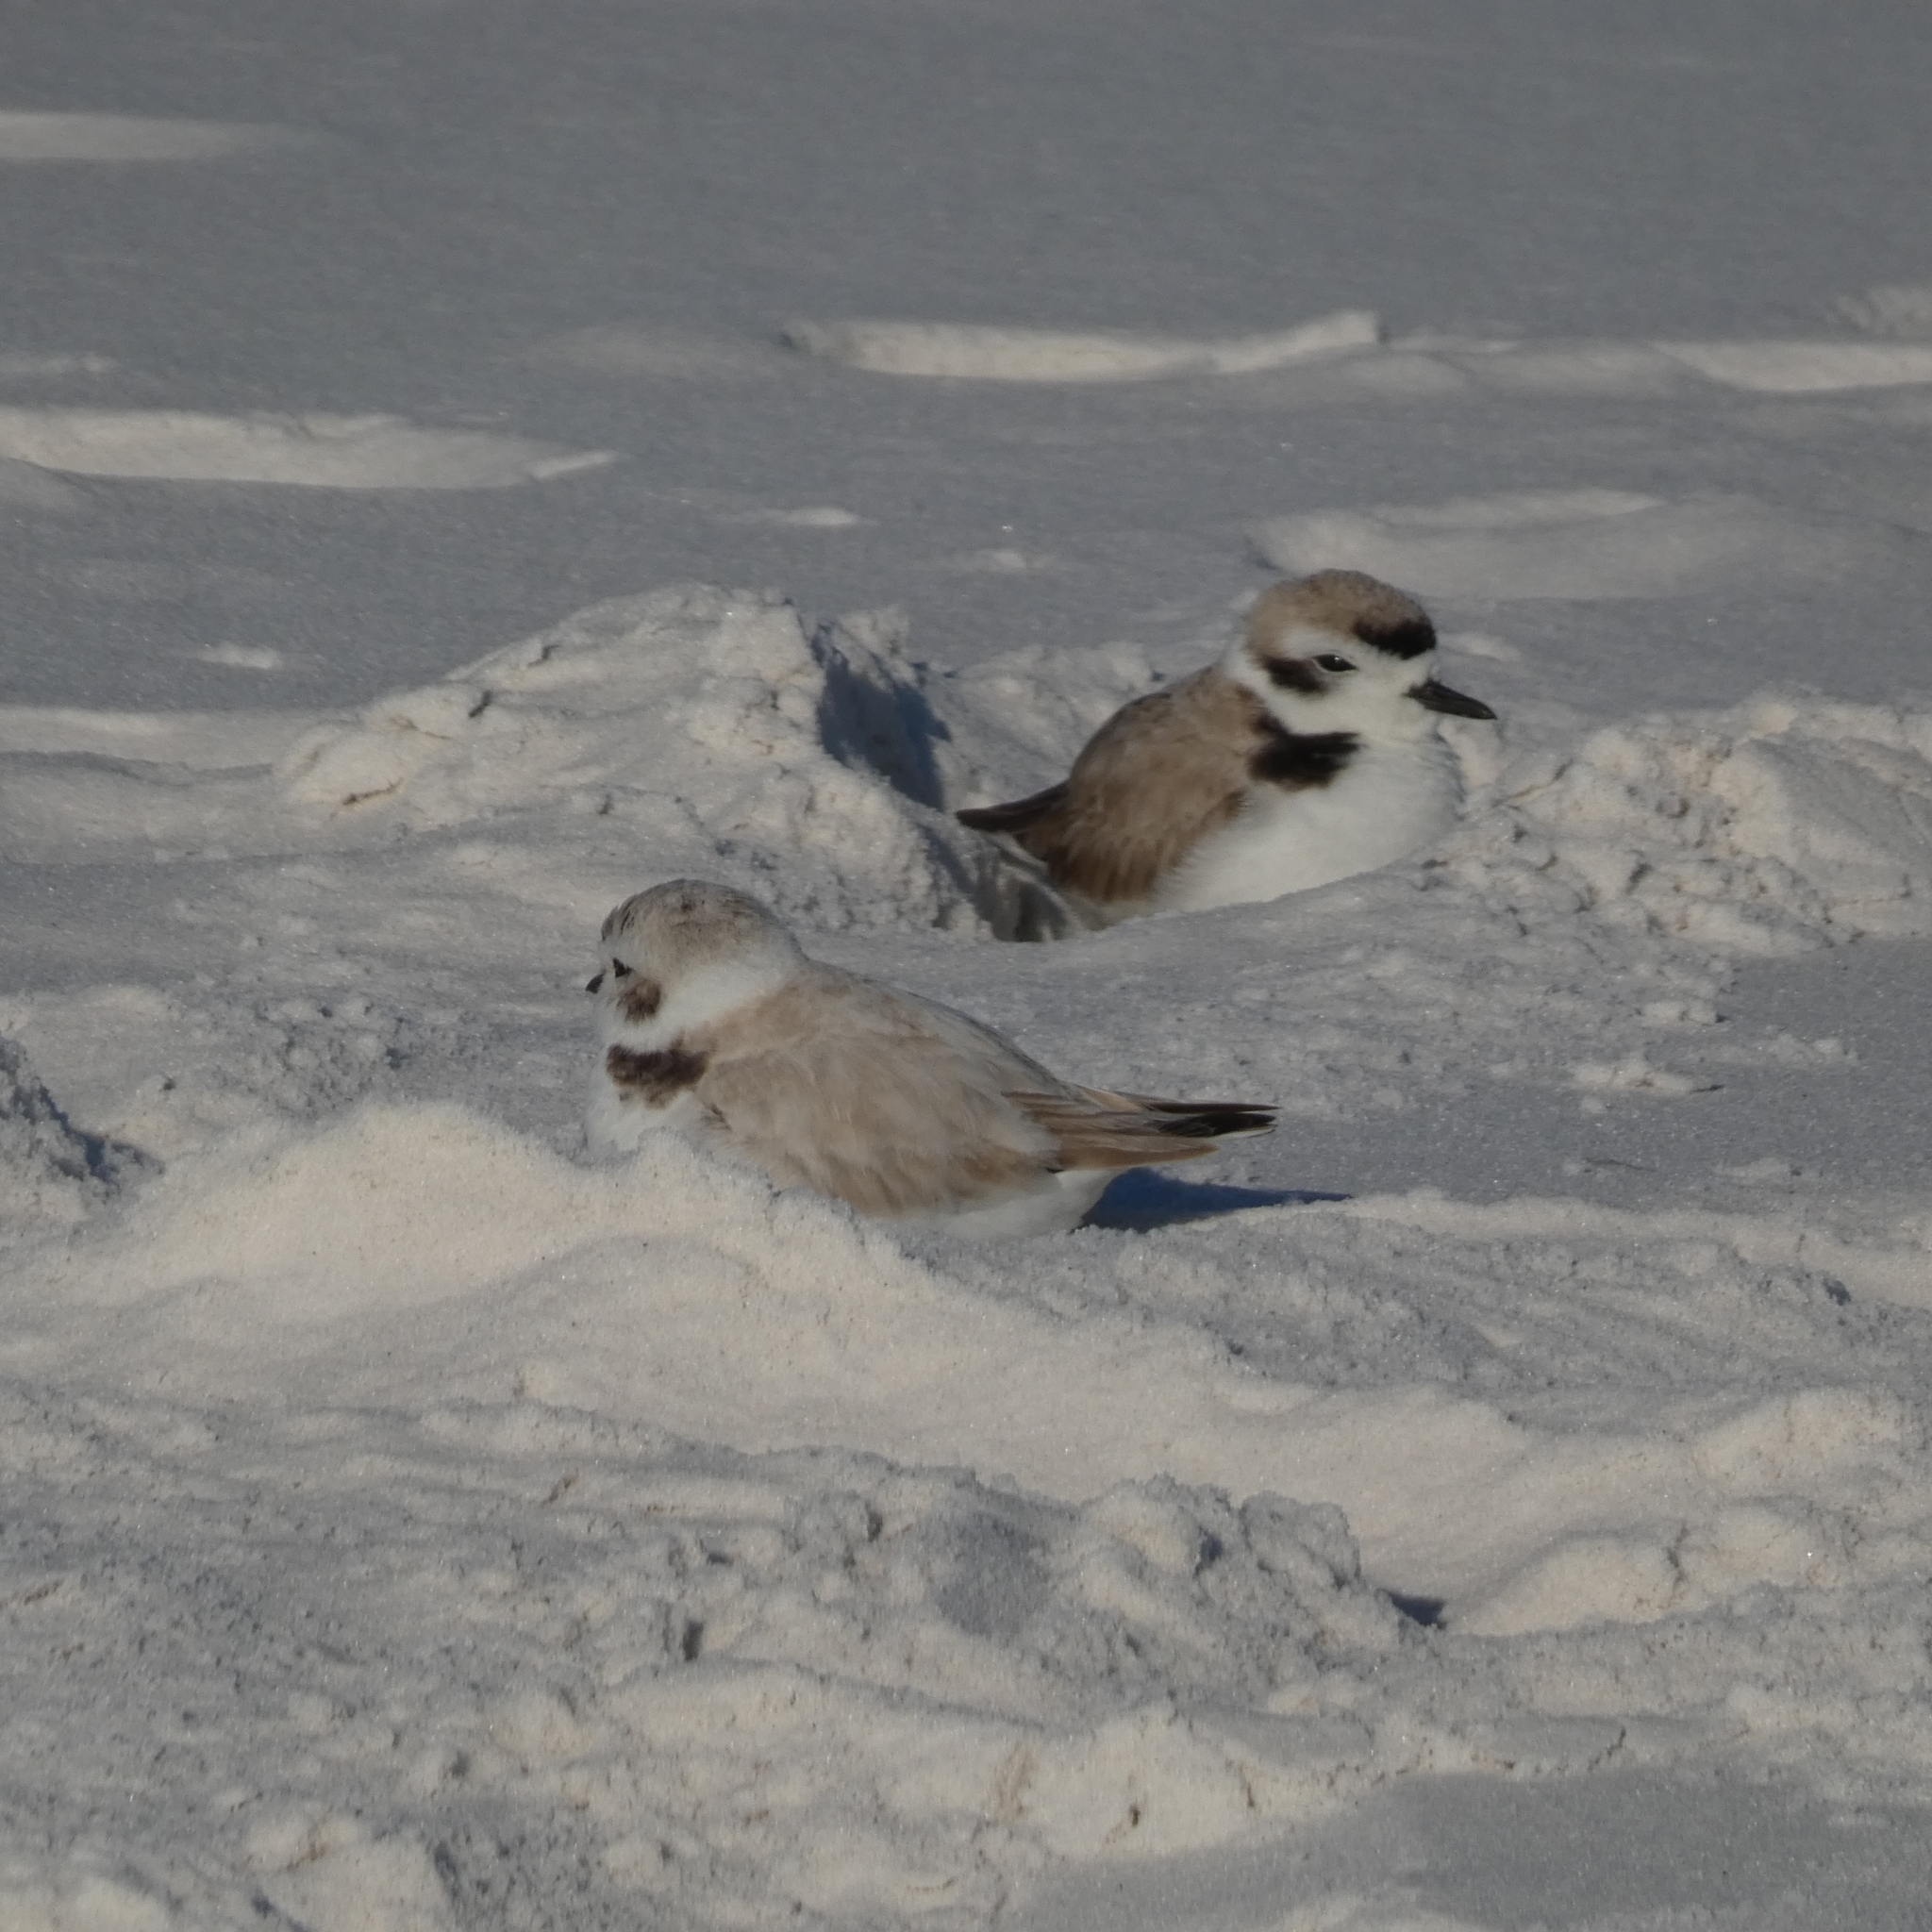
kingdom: Animalia
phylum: Chordata
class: Aves
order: Charadriiformes
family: Charadriidae
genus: Anarhynchus
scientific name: Anarhynchus
